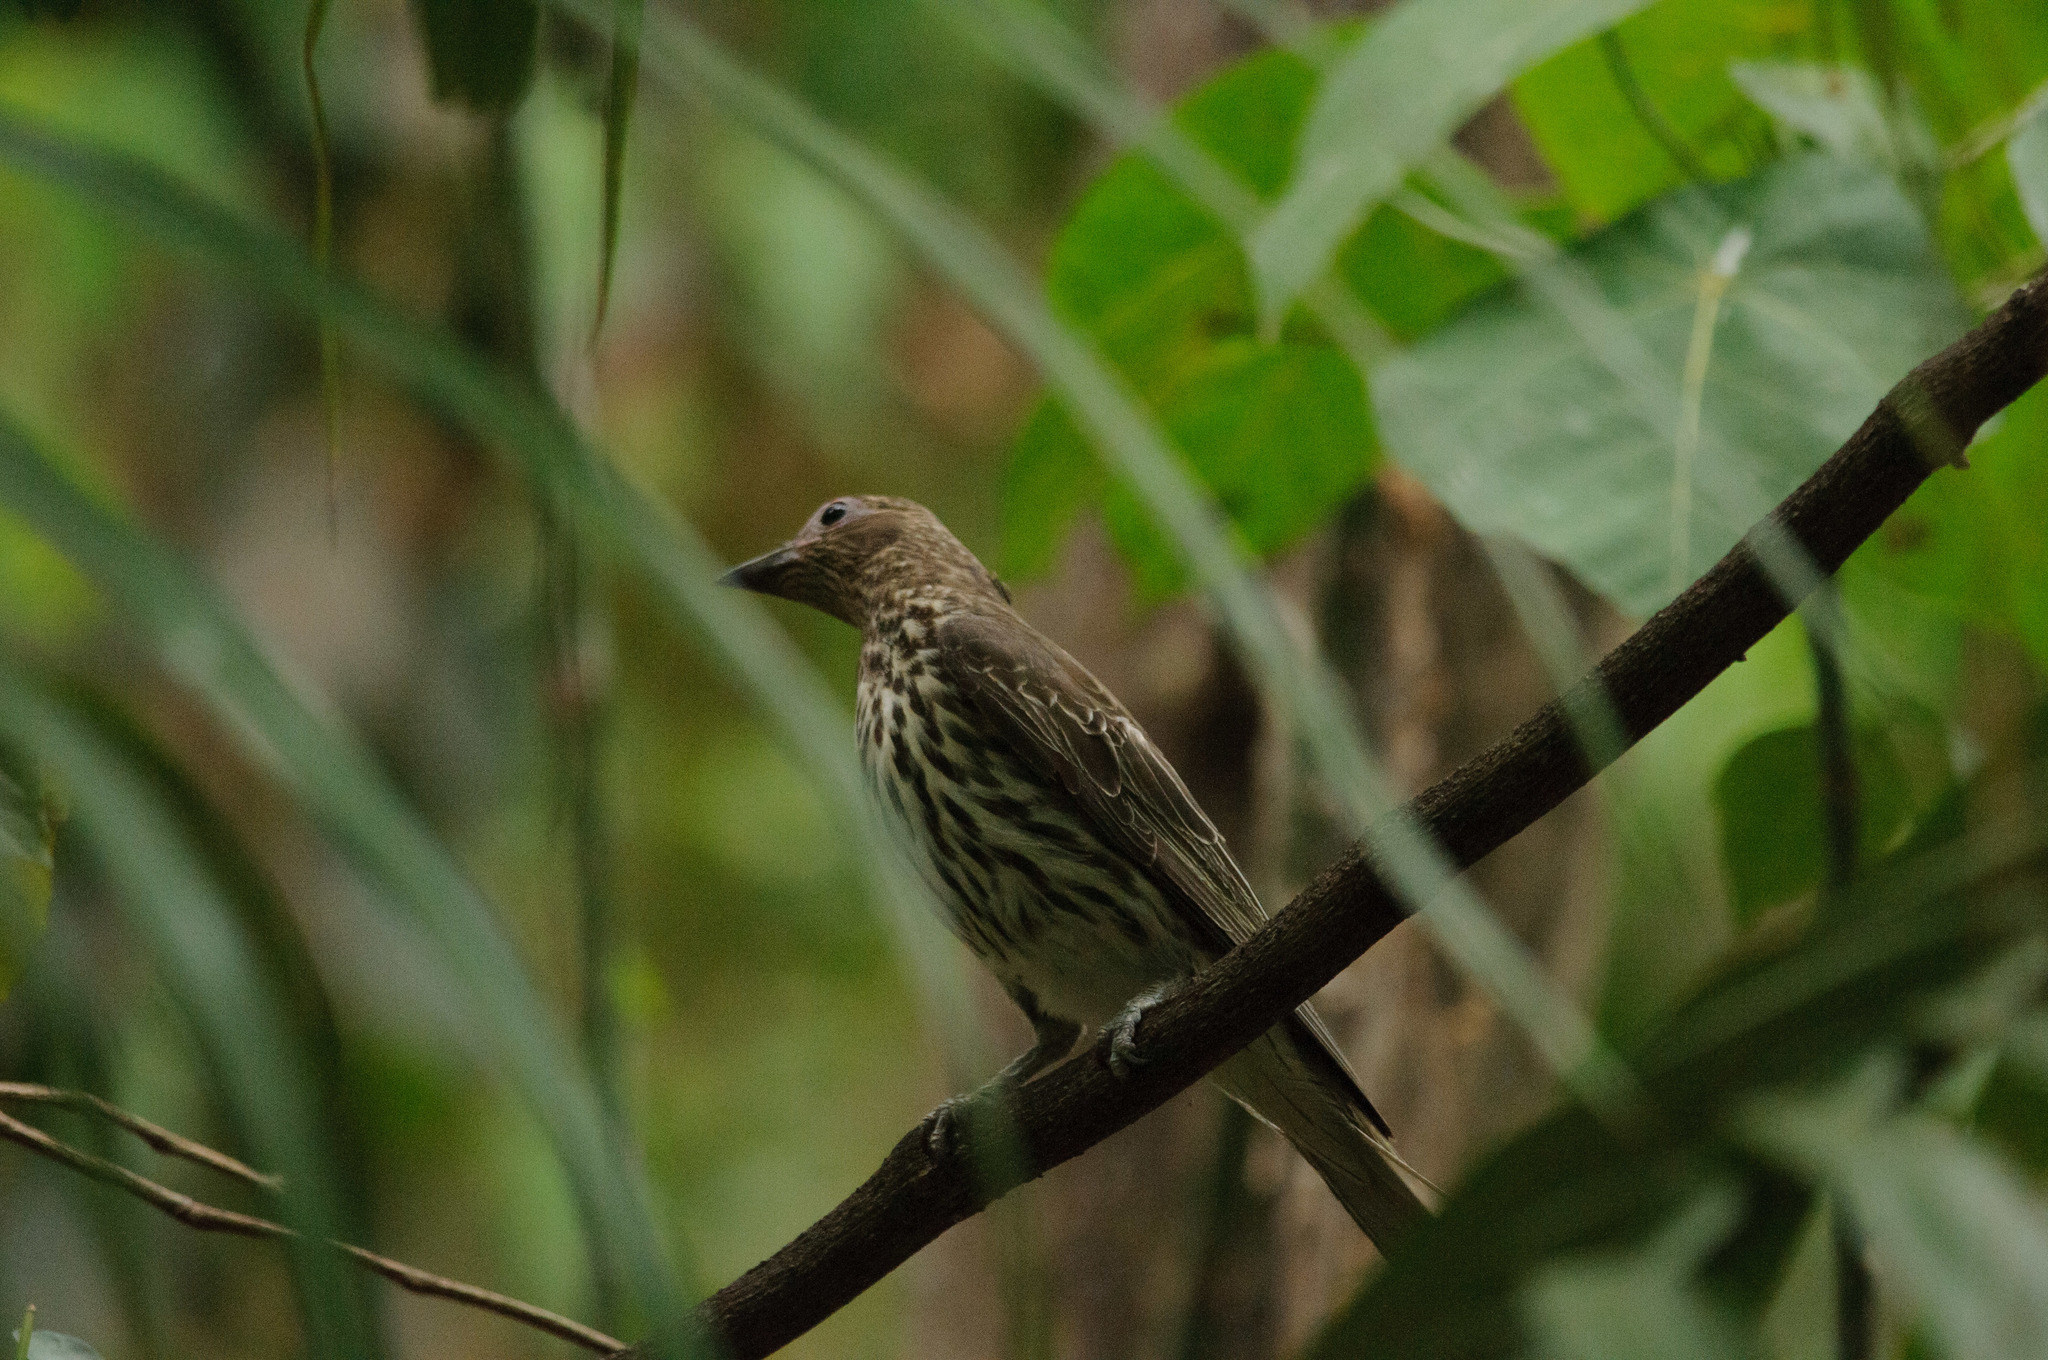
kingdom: Animalia
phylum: Chordata
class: Aves
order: Passeriformes
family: Oriolidae
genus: Sphecotheres
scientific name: Sphecotheres vieilloti
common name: Australasian figbird
